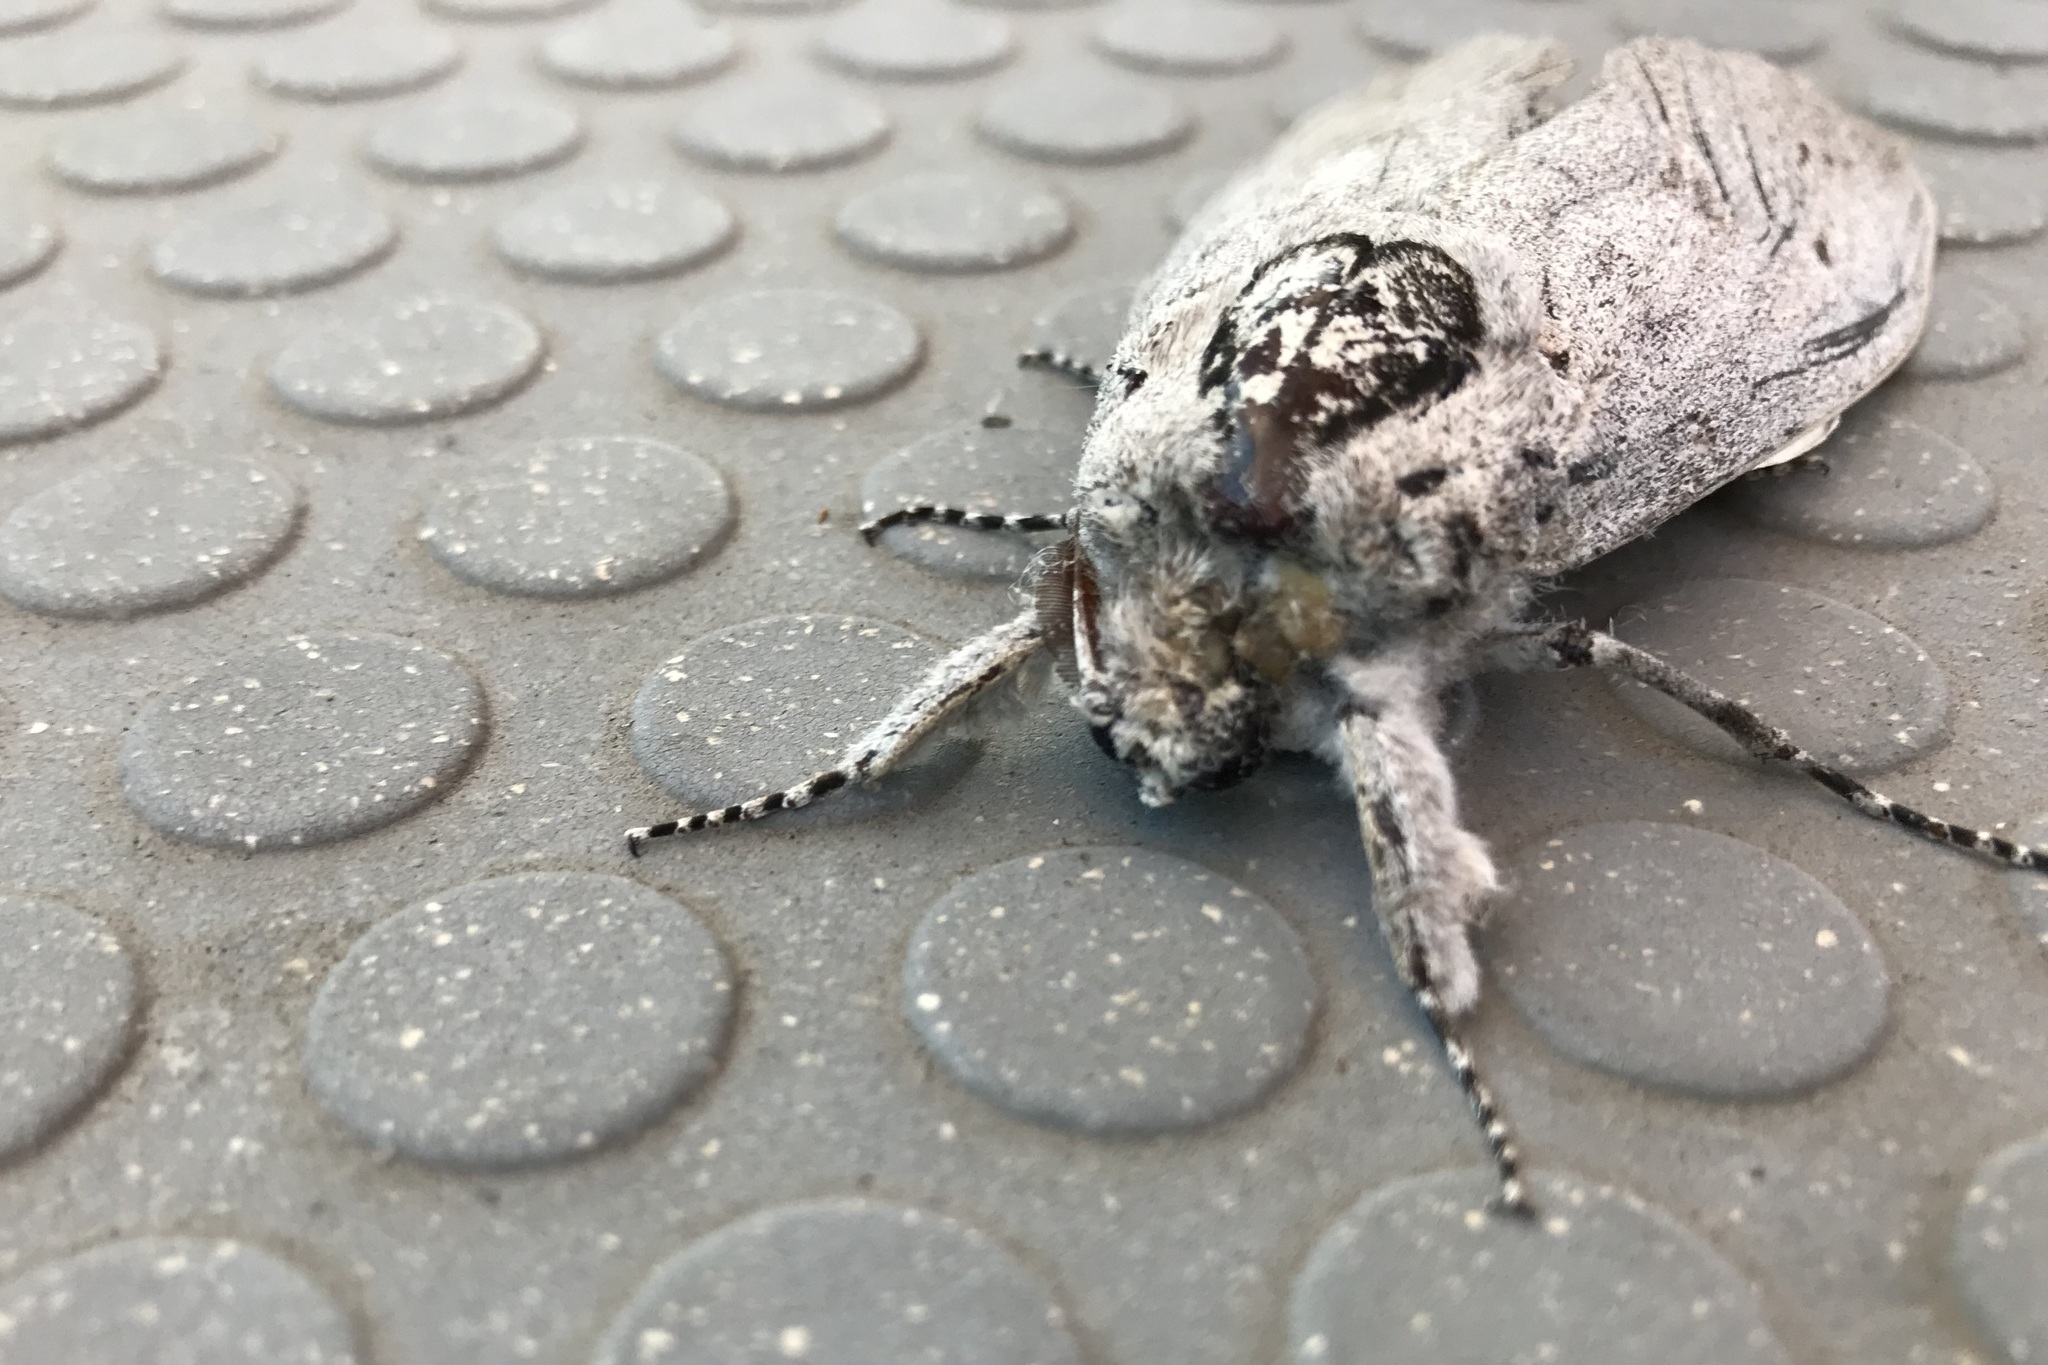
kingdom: Animalia
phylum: Arthropoda
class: Insecta
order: Lepidoptera
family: Cossidae
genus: Endoxyla
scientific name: Endoxyla cinereus
